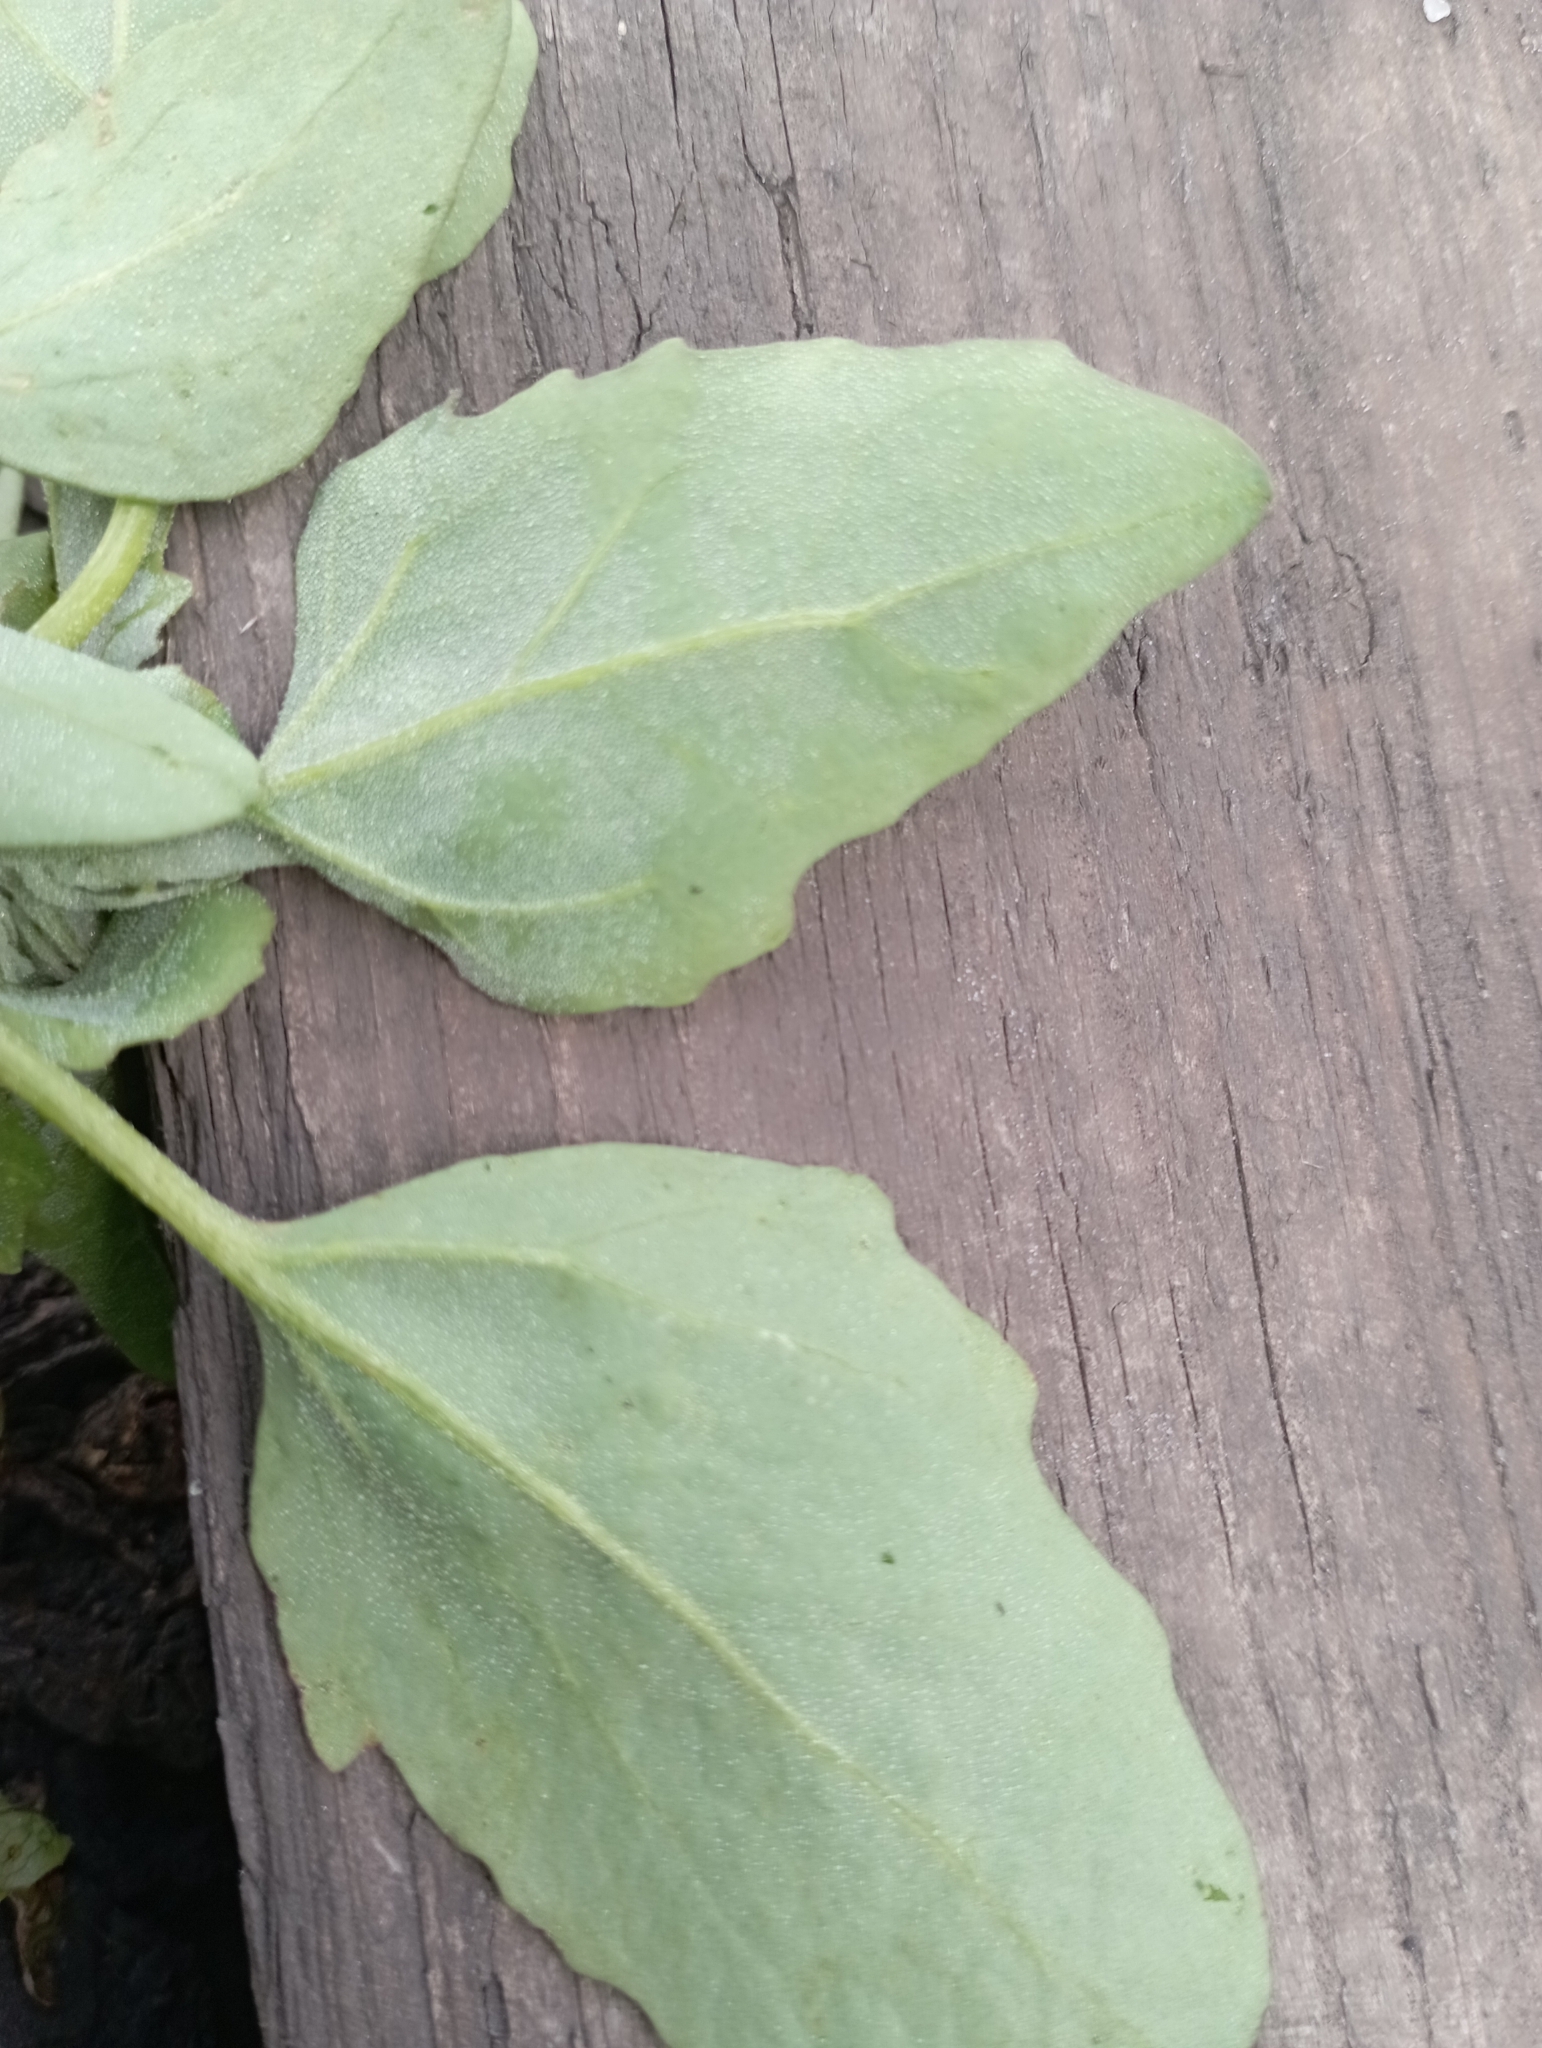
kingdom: Plantae
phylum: Tracheophyta
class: Magnoliopsida
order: Caryophyllales
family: Amaranthaceae
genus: Chenopodium
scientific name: Chenopodium album
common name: Fat-hen
